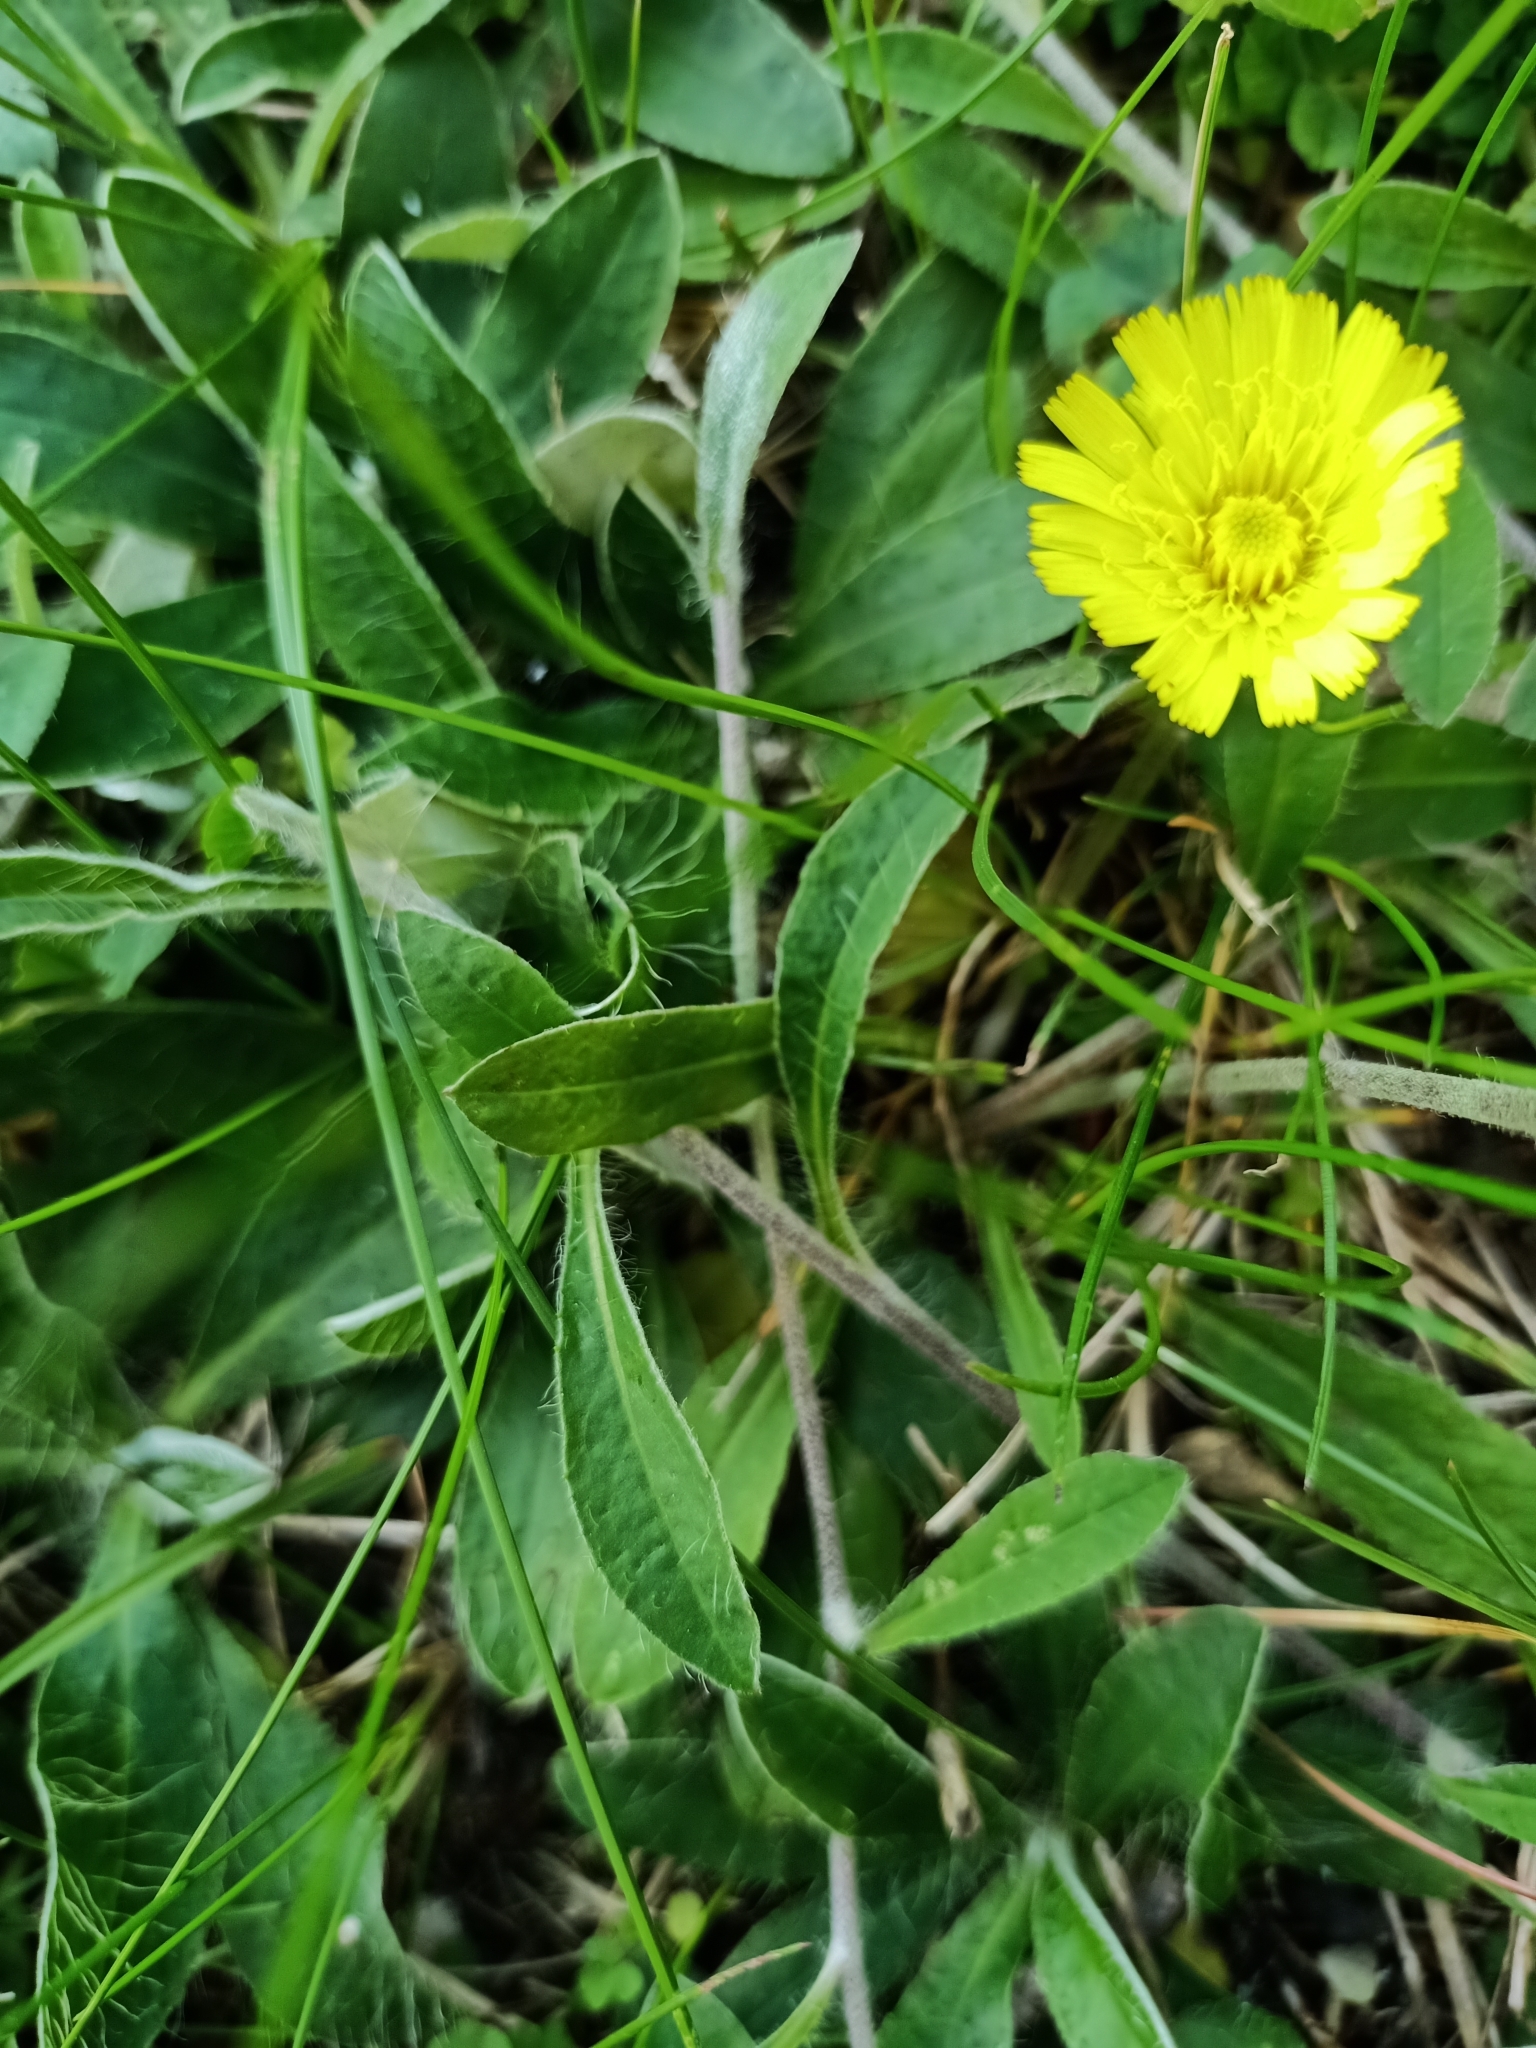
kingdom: Plantae
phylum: Tracheophyta
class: Magnoliopsida
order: Asterales
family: Asteraceae
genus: Pilosella
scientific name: Pilosella officinarum
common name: Mouse-ear hawkweed
